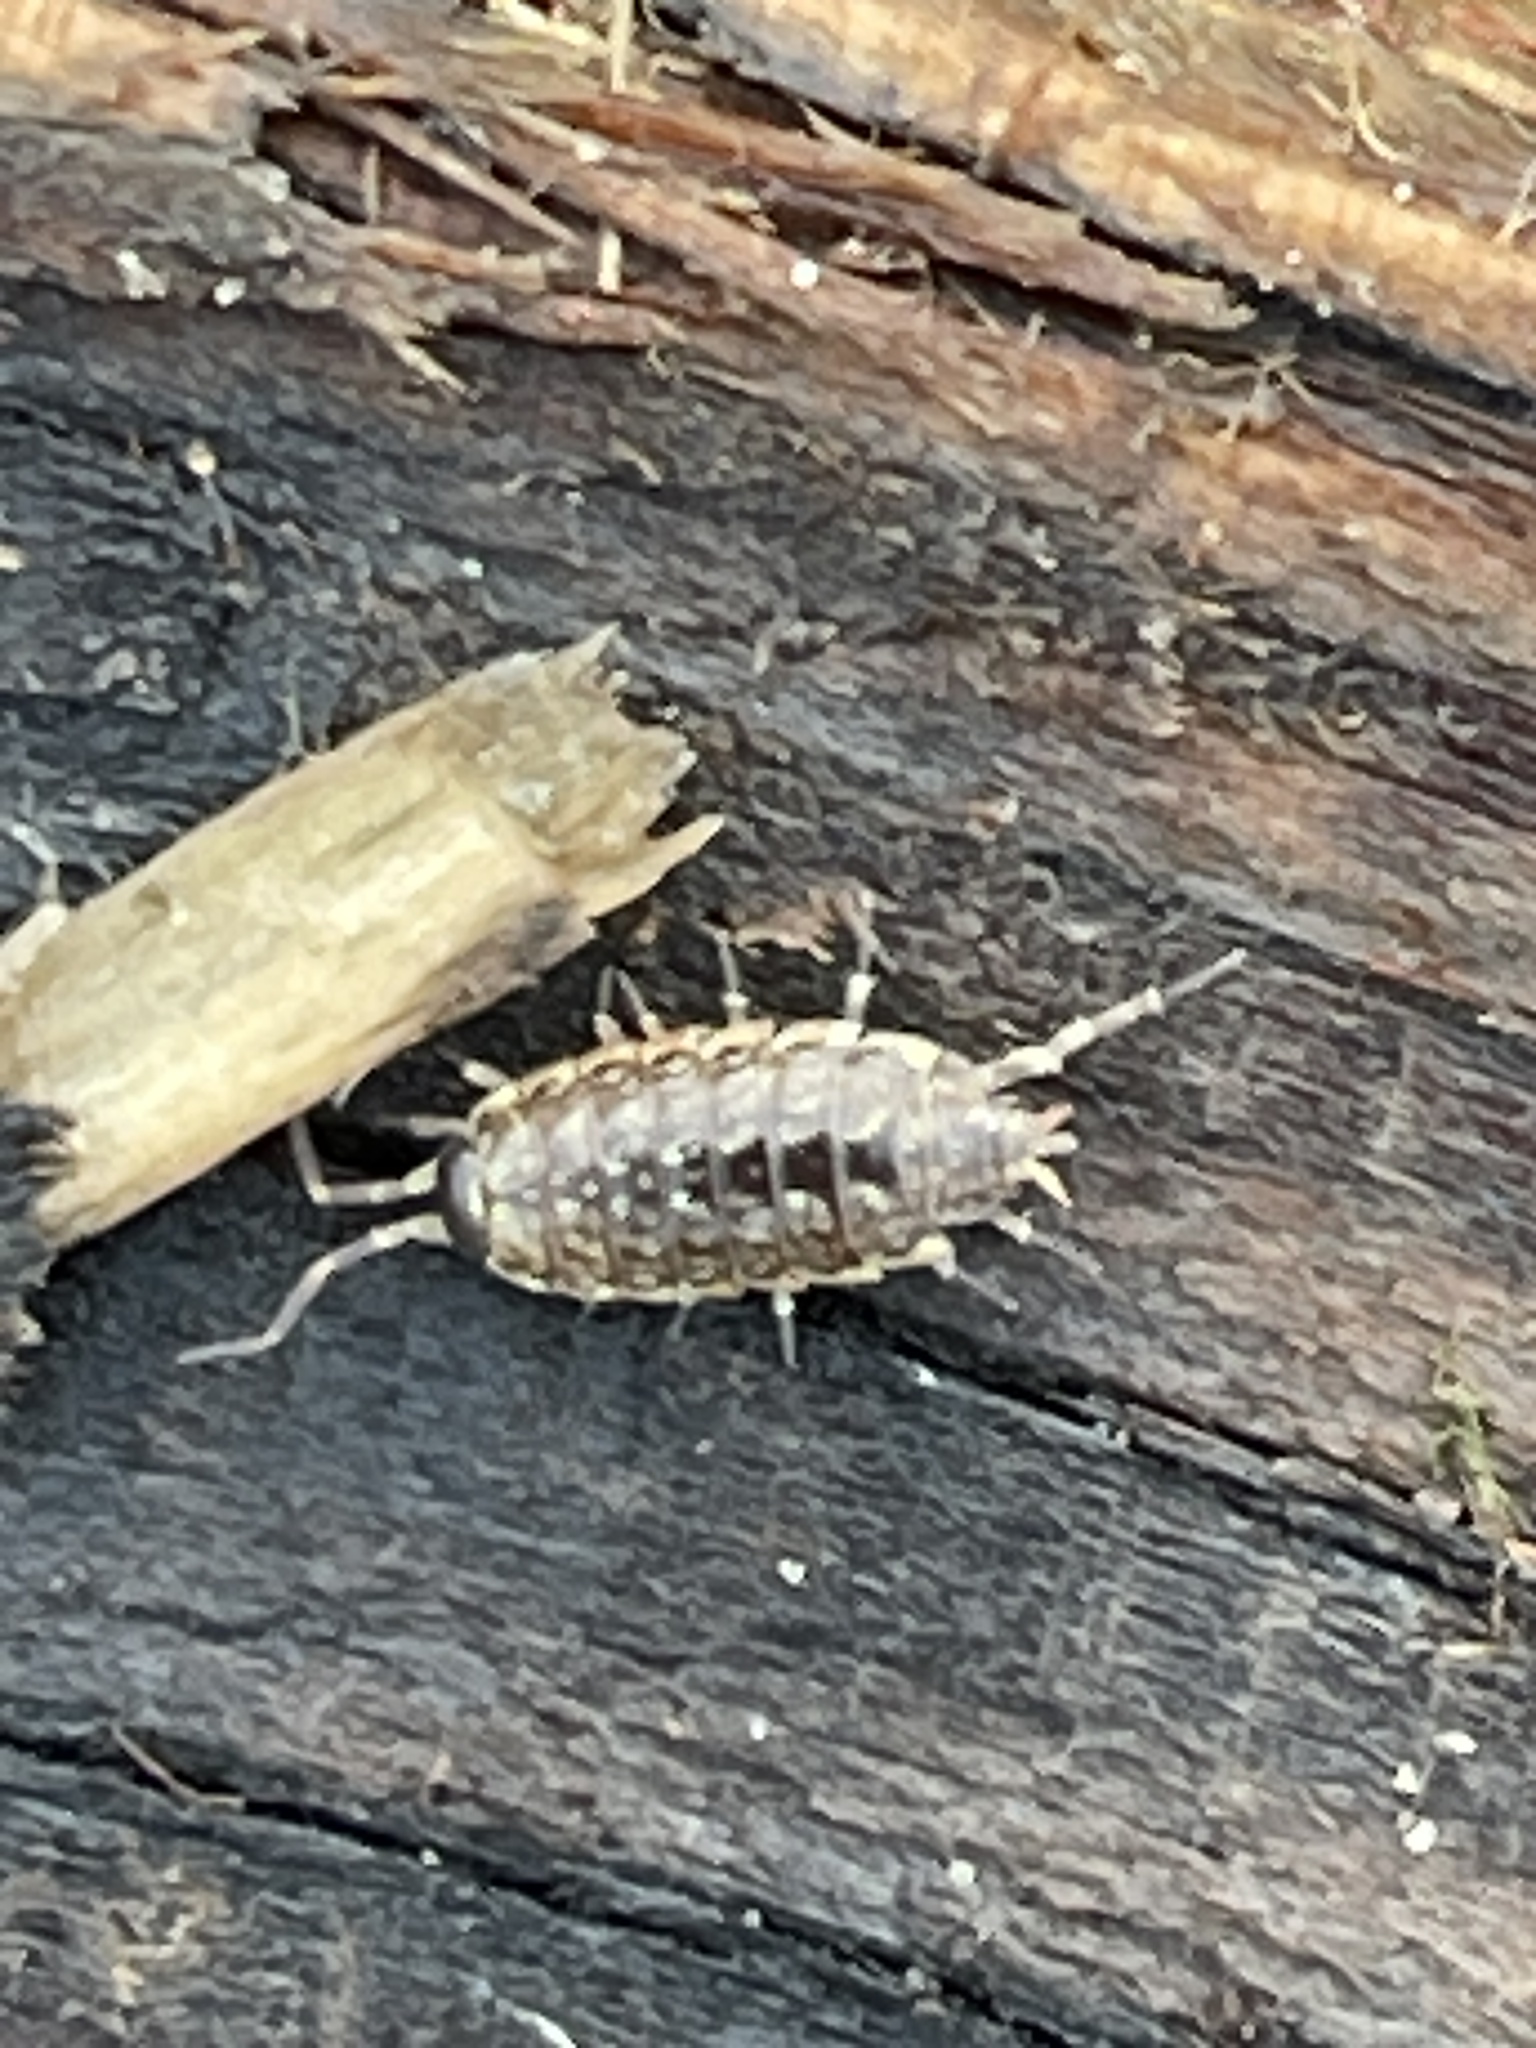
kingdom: Animalia
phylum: Arthropoda
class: Malacostraca
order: Isopoda
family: Philosciidae
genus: Philoscia
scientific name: Philoscia muscorum
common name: Common striped woodlouse
